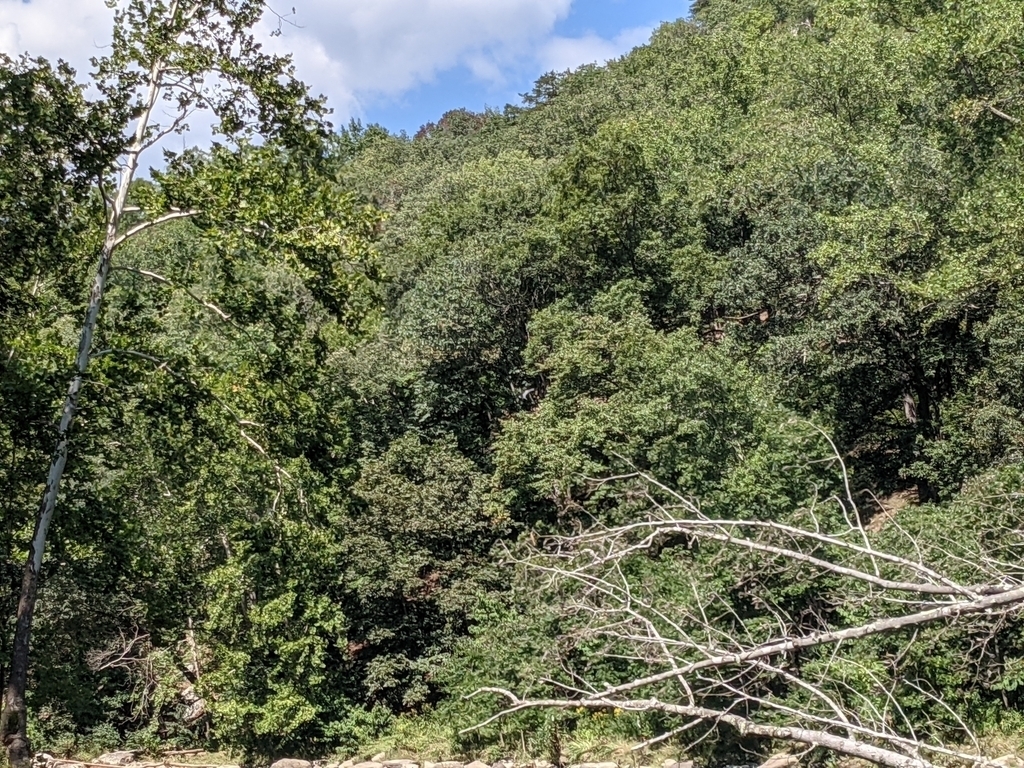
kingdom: Animalia
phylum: Chordata
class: Aves
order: Pelecaniformes
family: Ardeidae
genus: Ardea
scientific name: Ardea herodias
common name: Great blue heron
